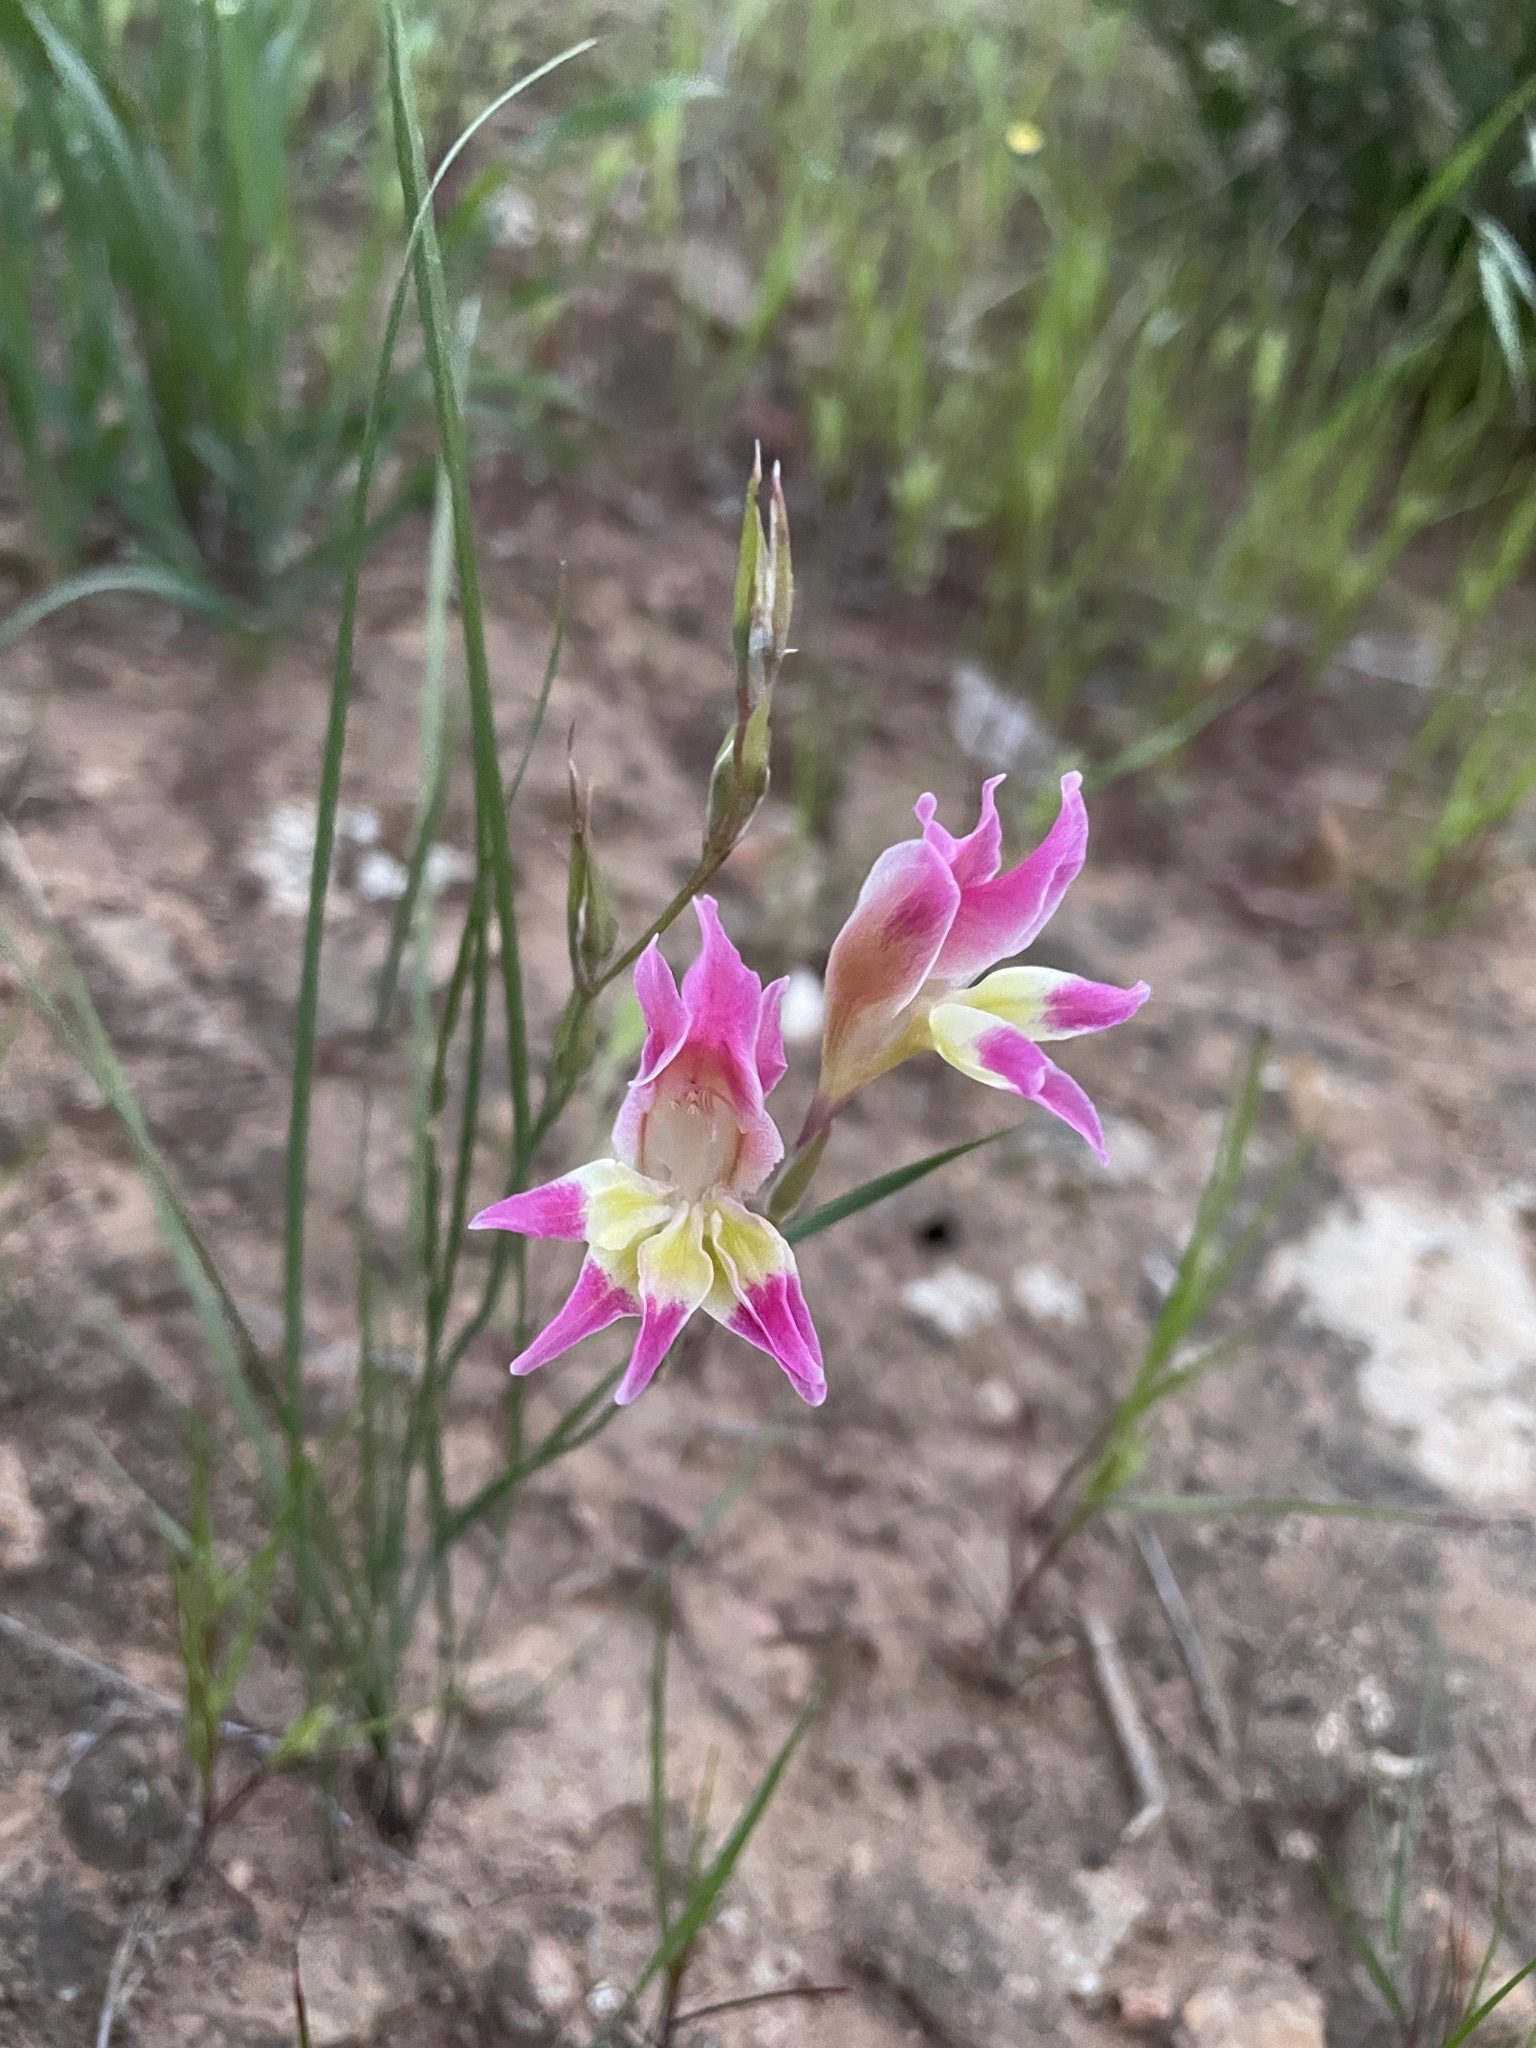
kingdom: Plantae
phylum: Tracheophyta
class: Liliopsida
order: Asparagales
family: Iridaceae
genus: Gladiolus
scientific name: Gladiolus venustus
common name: Purple kalkoentjie
